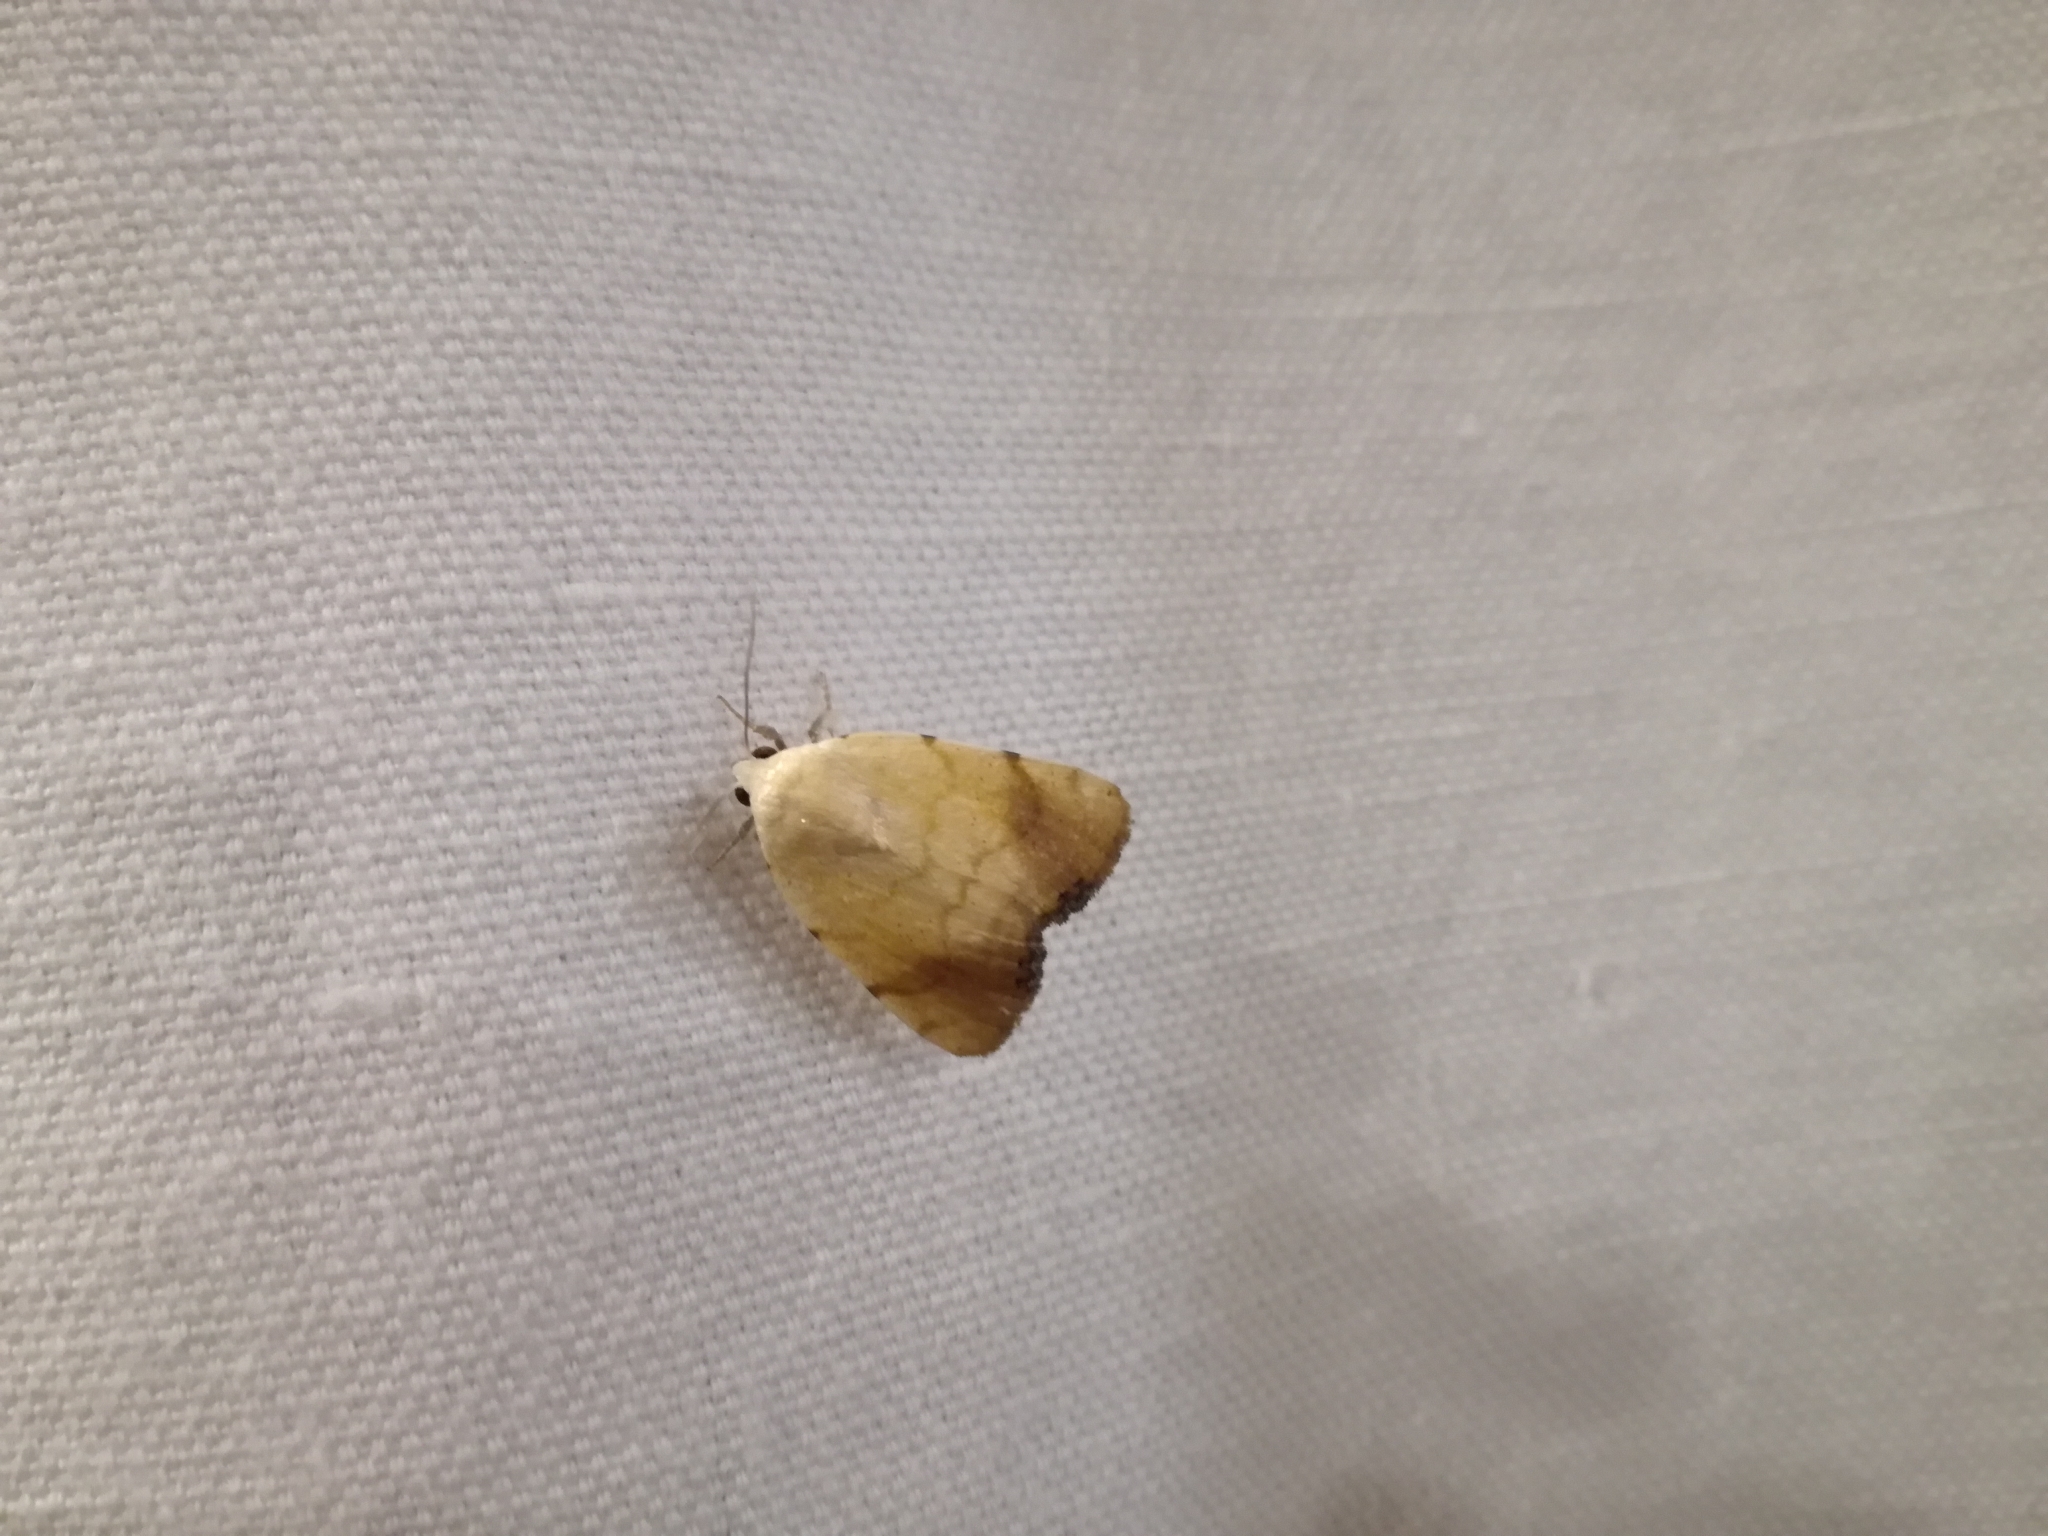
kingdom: Animalia
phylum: Arthropoda
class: Insecta
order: Lepidoptera
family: Nolidae
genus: Xanthodes
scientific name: Xanthodes albago
